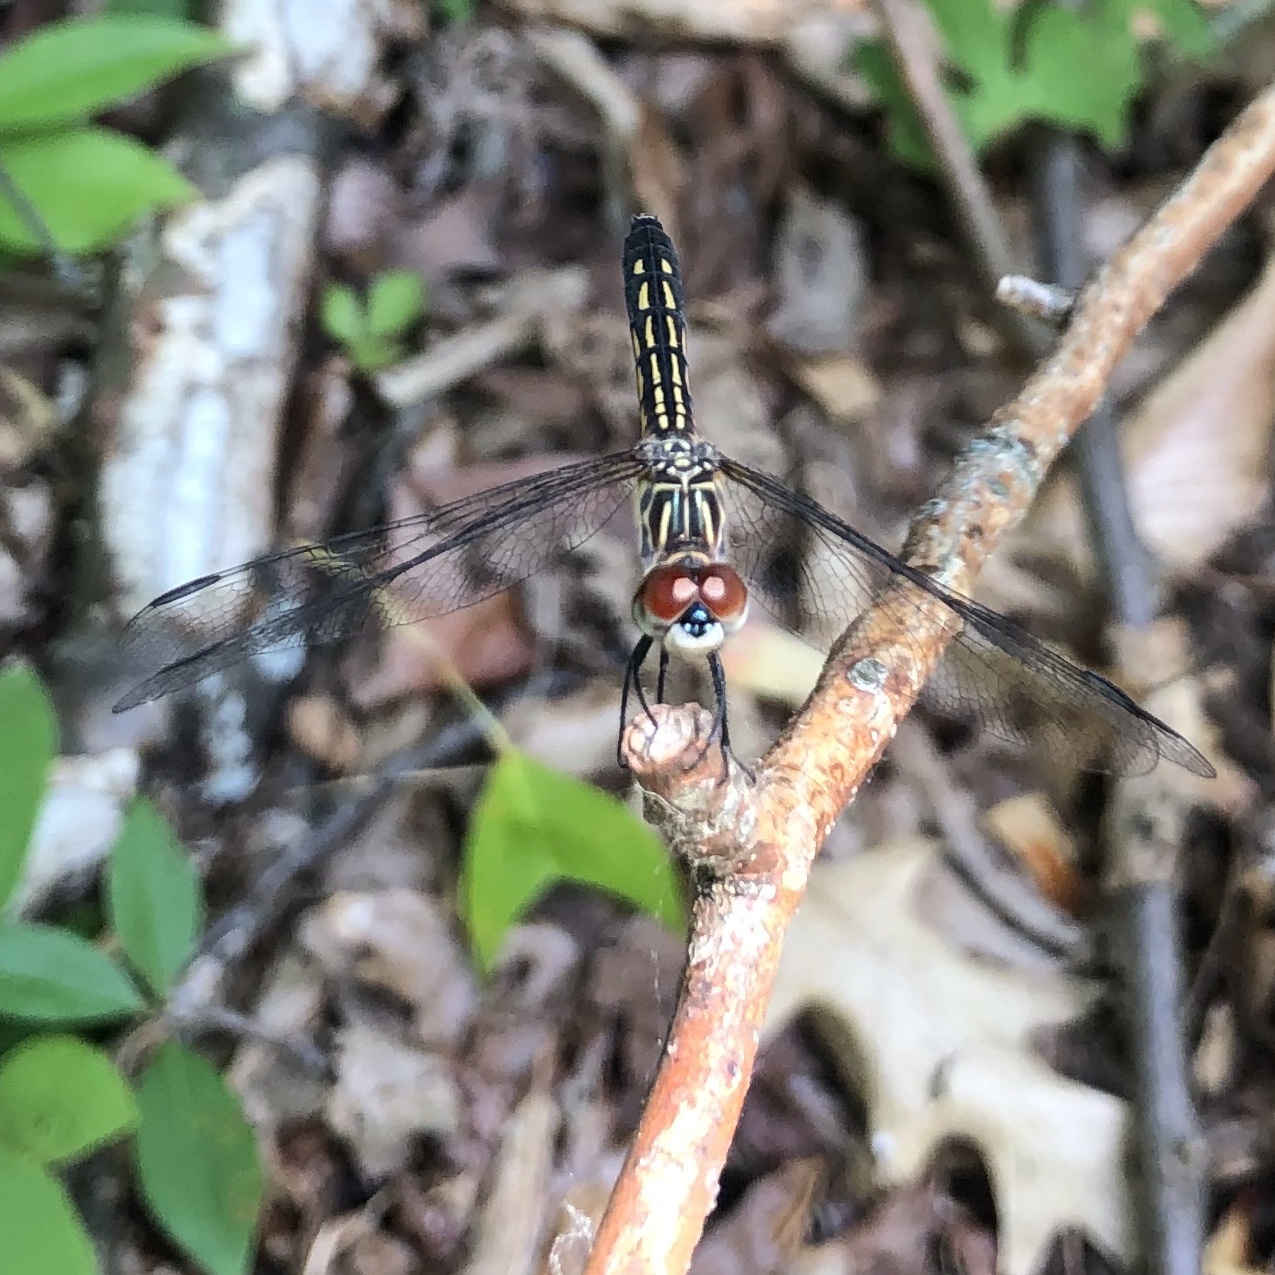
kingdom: Animalia
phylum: Arthropoda
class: Insecta
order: Odonata
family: Libellulidae
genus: Pachydiplax
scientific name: Pachydiplax longipennis
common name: Blue dasher
